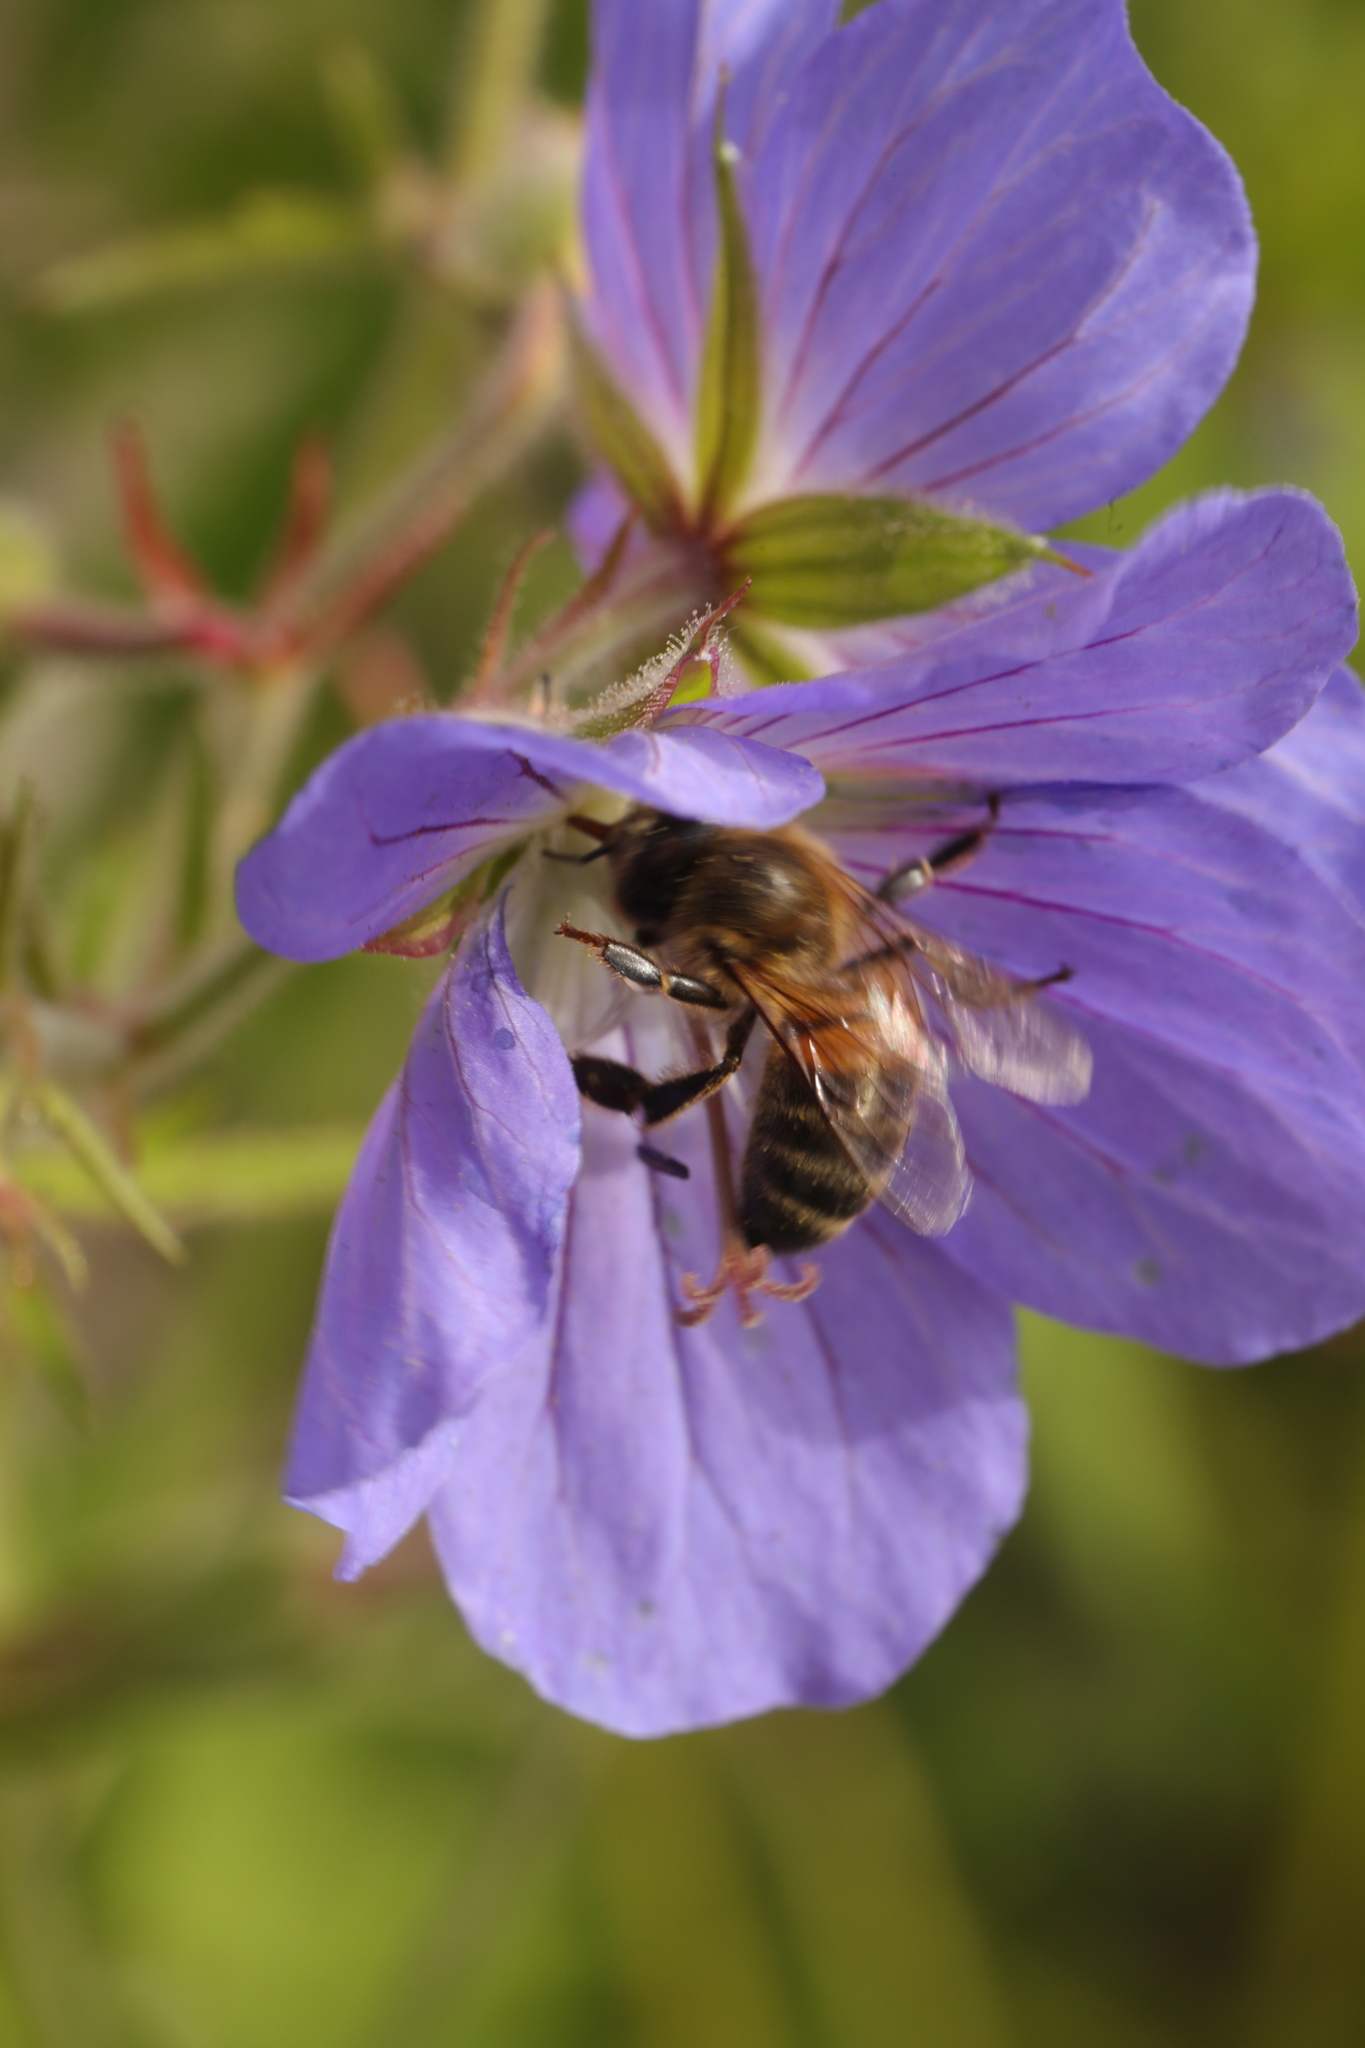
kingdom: Animalia
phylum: Arthropoda
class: Insecta
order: Hymenoptera
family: Apidae
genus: Apis
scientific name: Apis mellifera
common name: Honey bee
